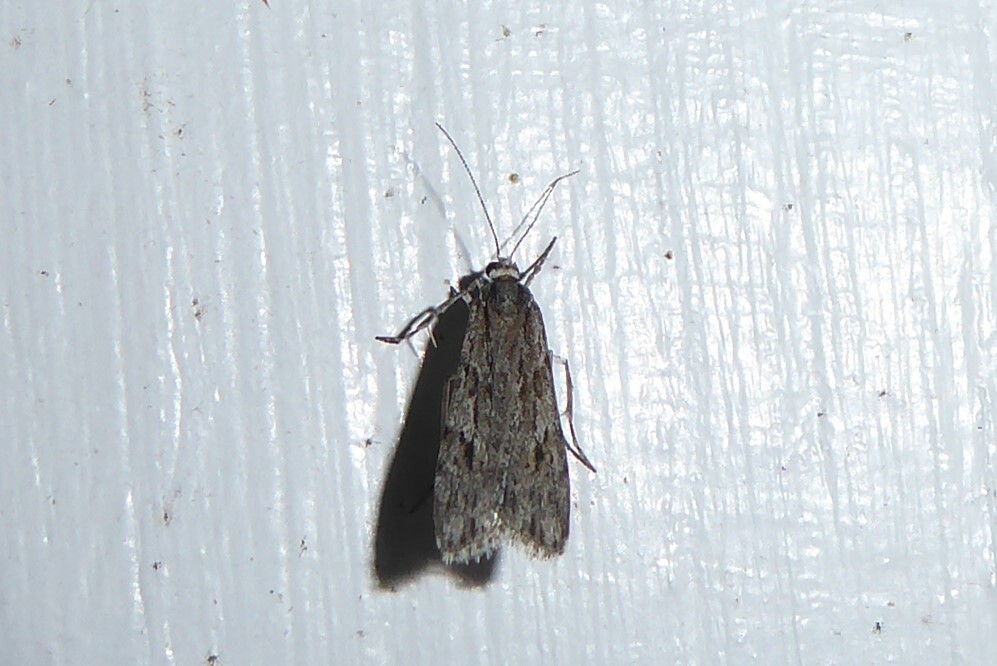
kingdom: Animalia
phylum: Arthropoda
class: Insecta
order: Lepidoptera
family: Crambidae
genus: Scoparia
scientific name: Scoparia chalicodes
